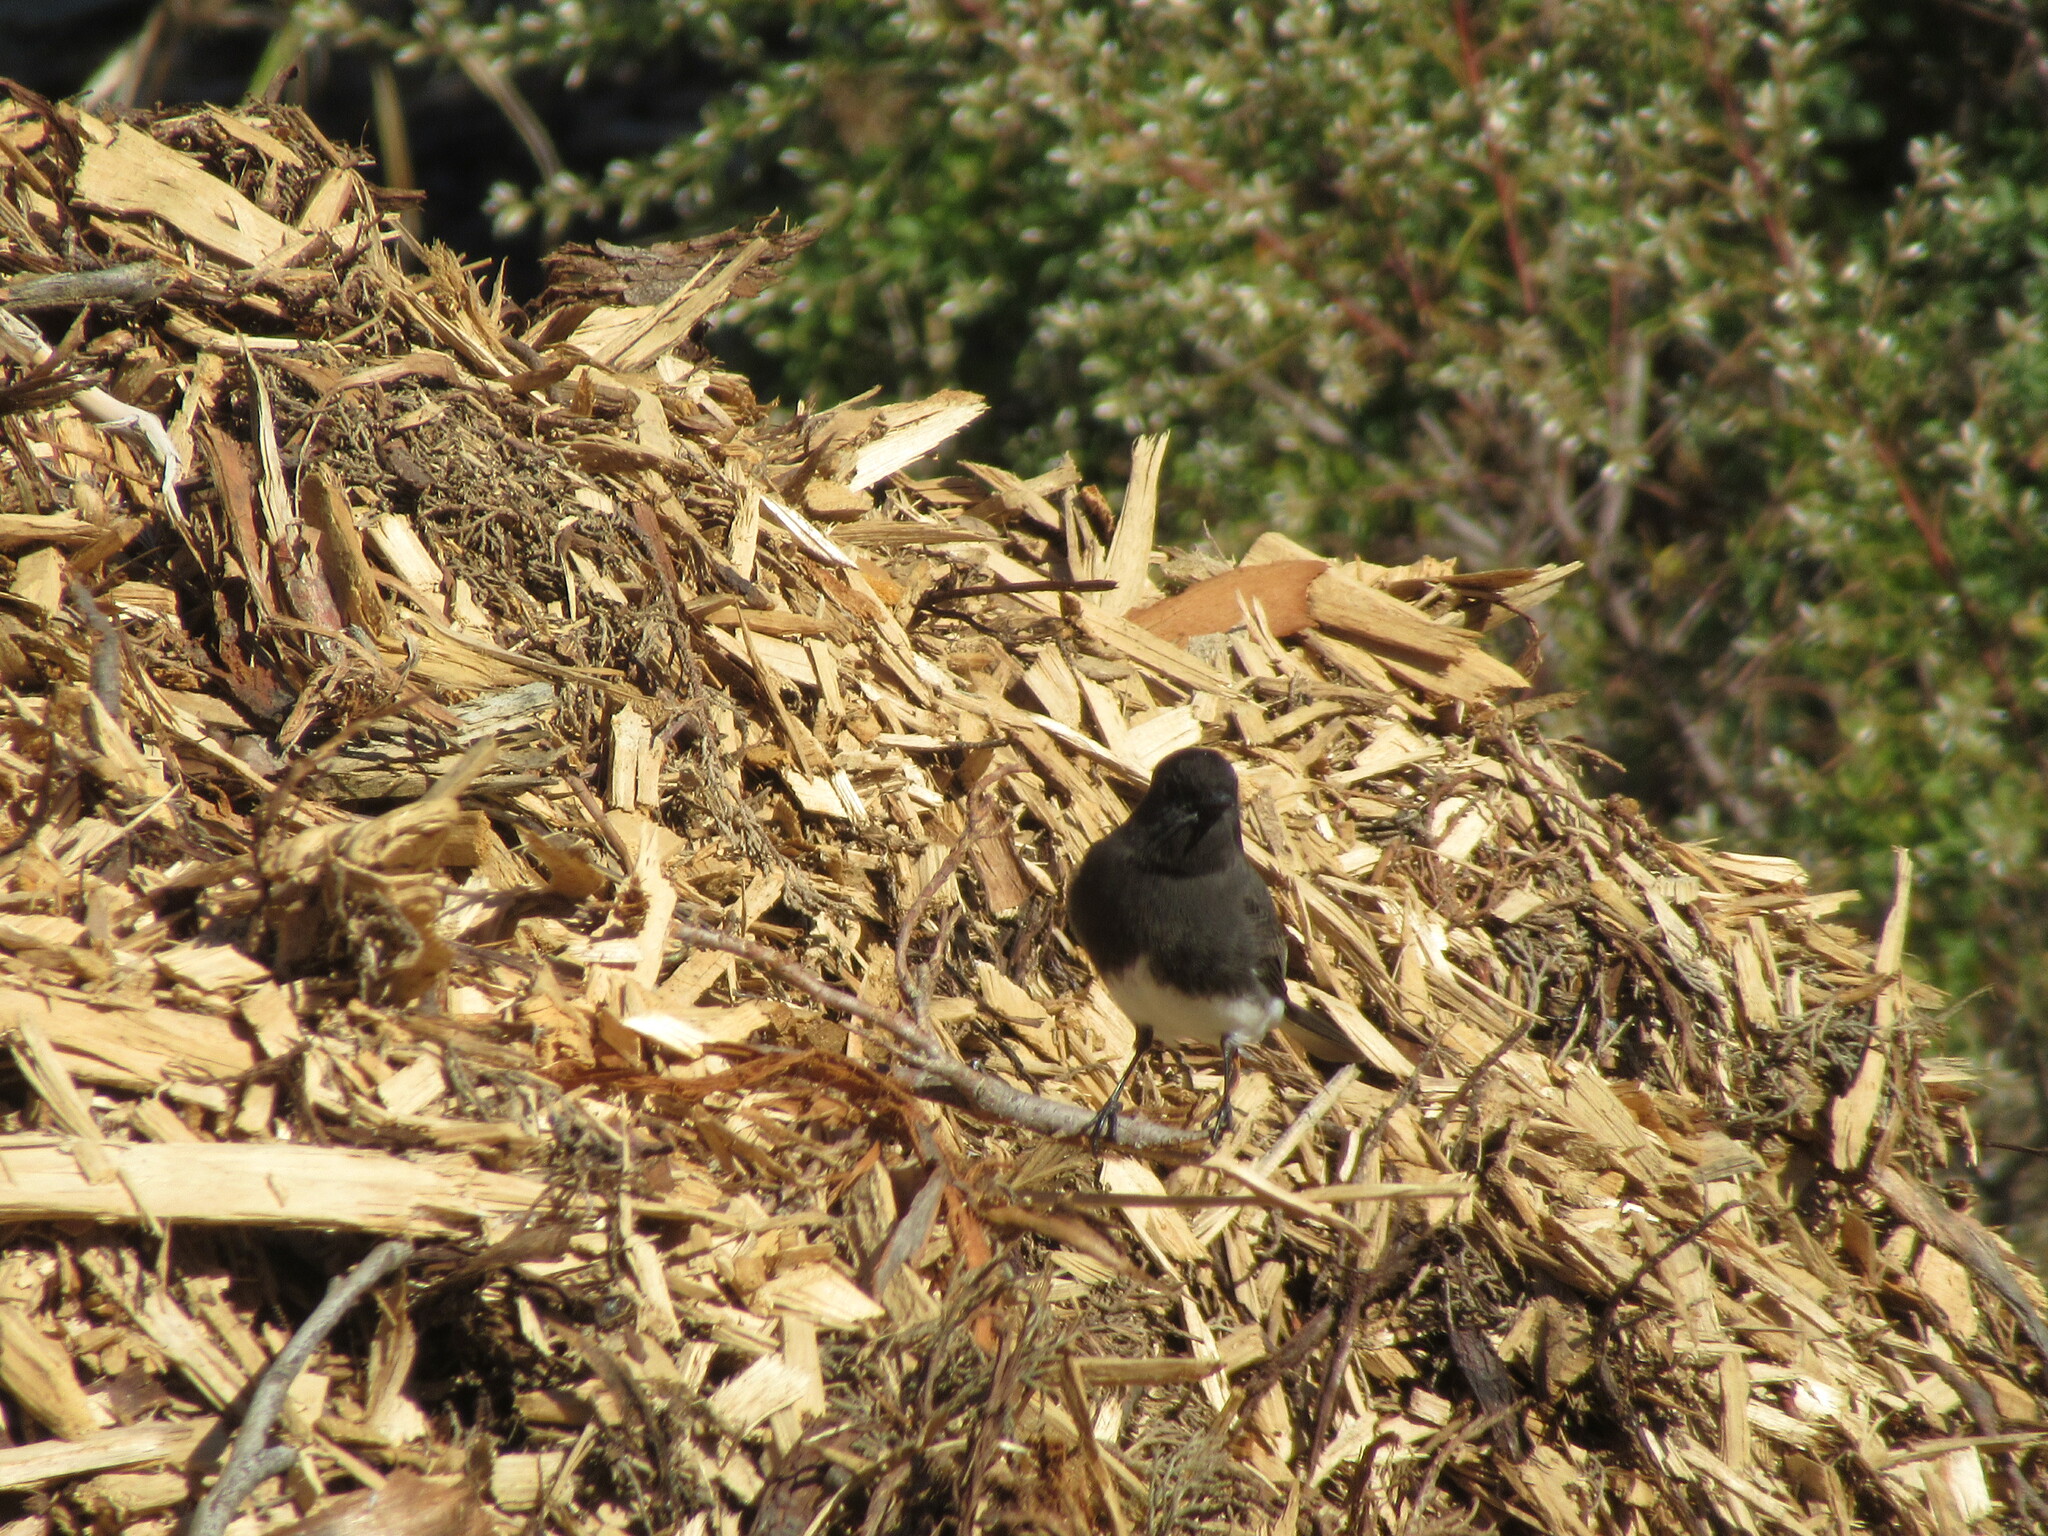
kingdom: Animalia
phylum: Chordata
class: Aves
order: Passeriformes
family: Tyrannidae
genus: Sayornis
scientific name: Sayornis nigricans
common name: Black phoebe
